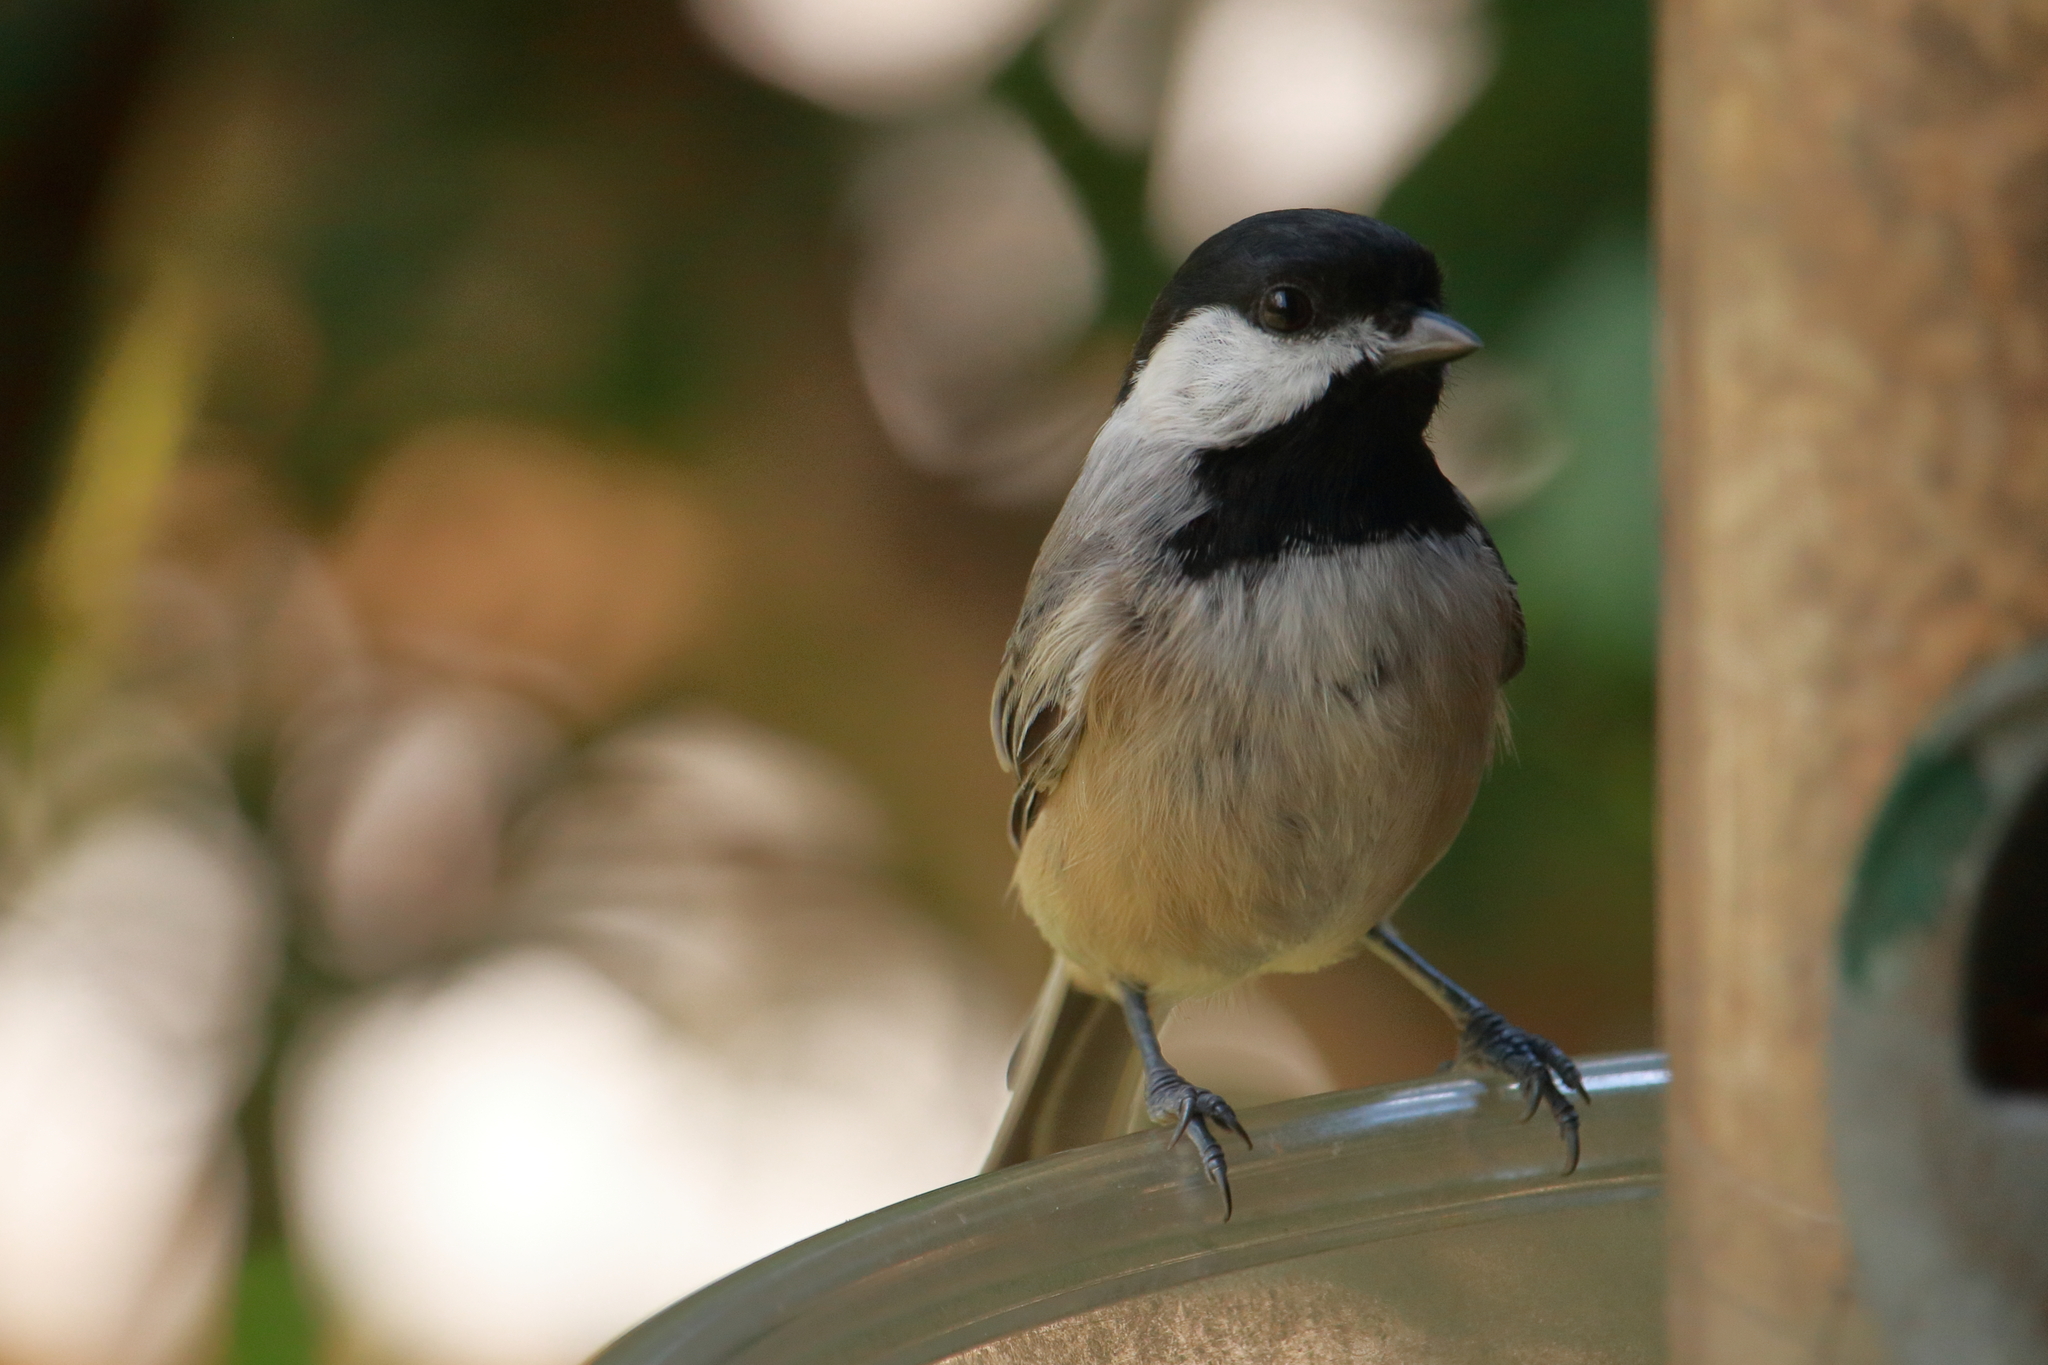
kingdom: Animalia
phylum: Chordata
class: Aves
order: Passeriformes
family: Paridae
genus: Poecile
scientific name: Poecile carolinensis
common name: Carolina chickadee
